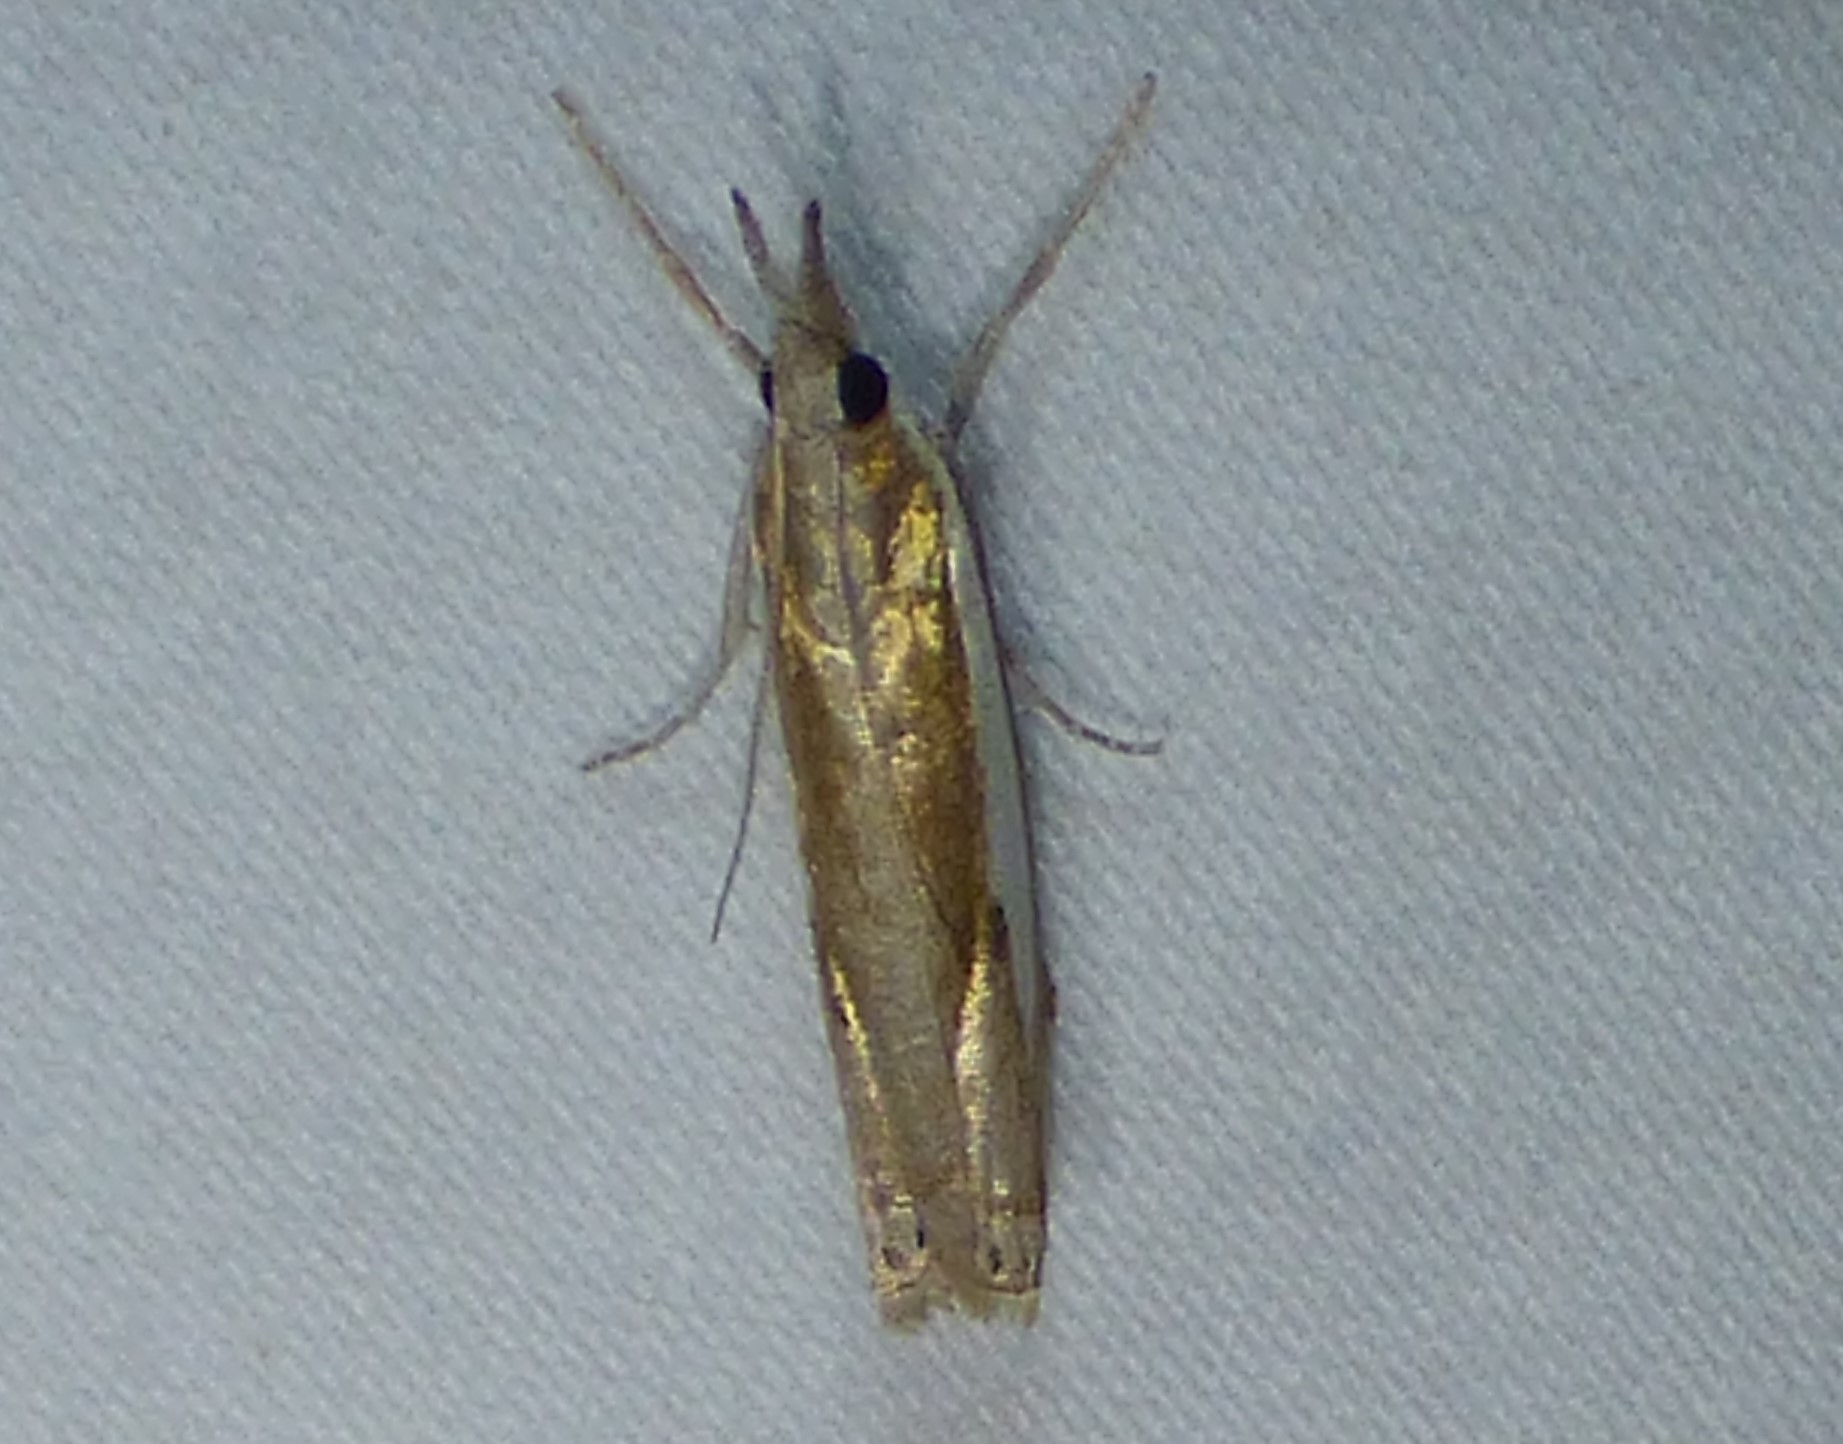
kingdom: Animalia
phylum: Arthropoda
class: Insecta
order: Lepidoptera
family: Crambidae
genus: Crambus
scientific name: Crambus praefectellus
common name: Common grass-veneer
